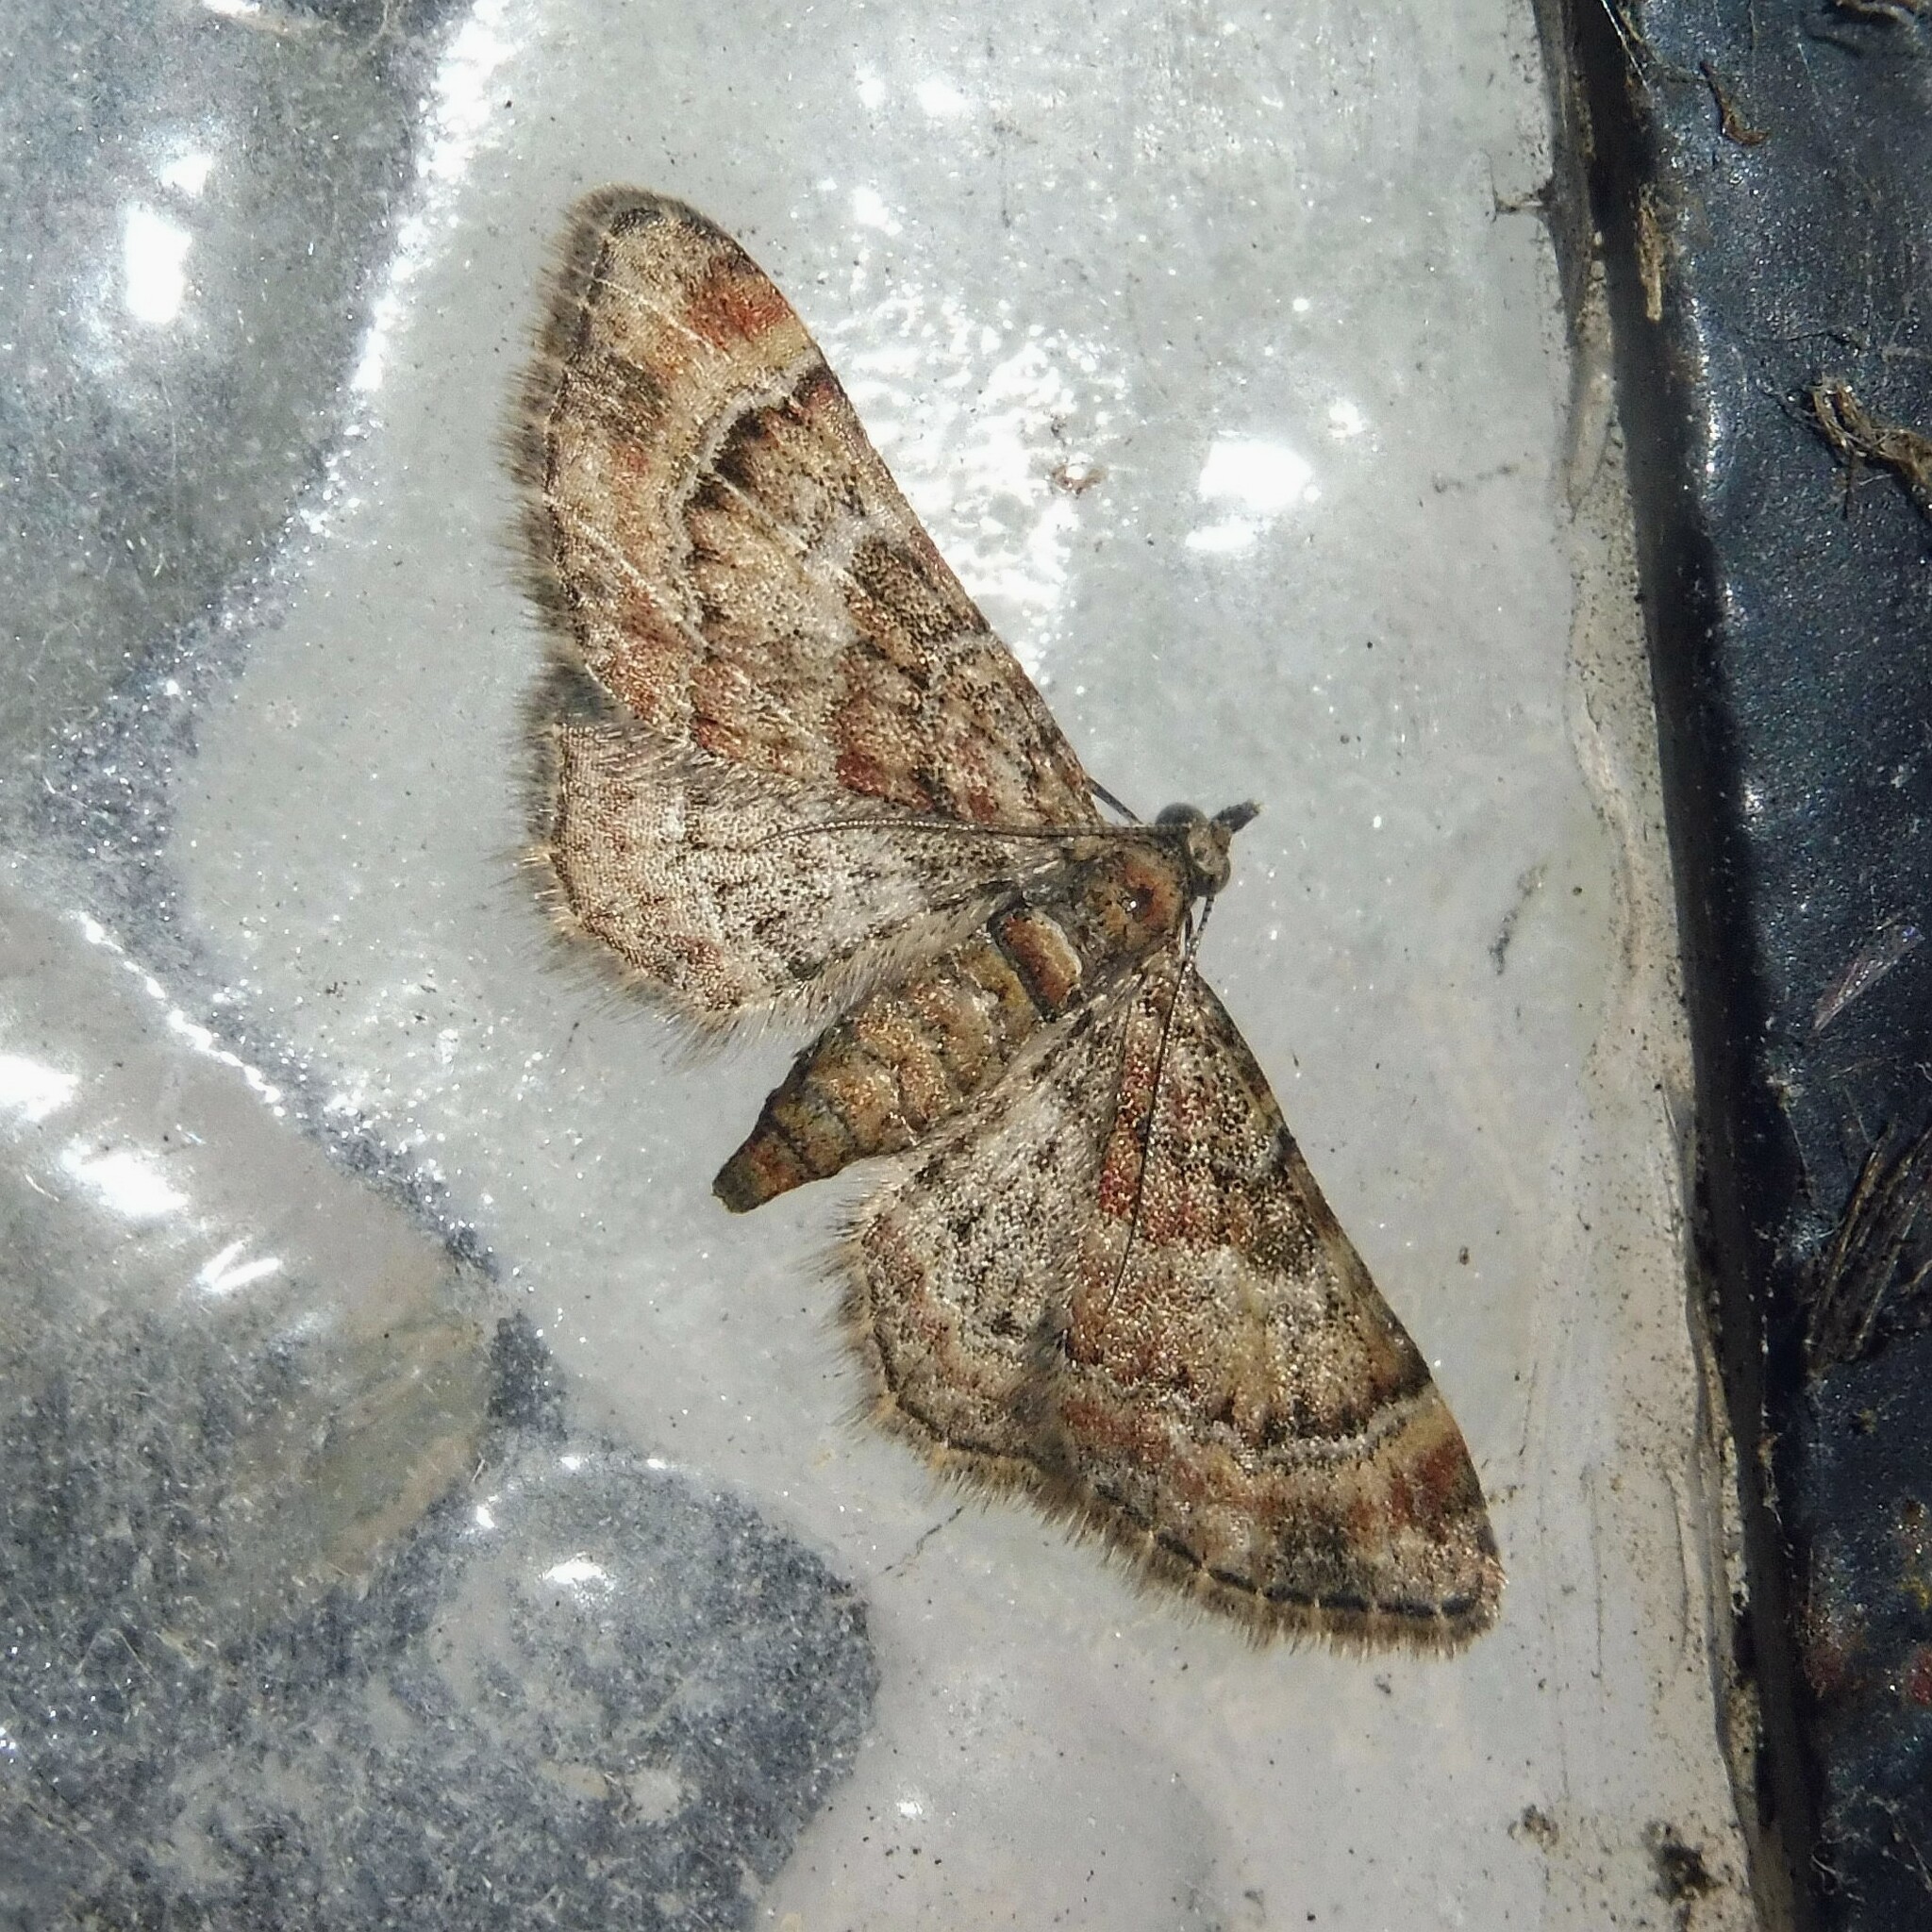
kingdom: Animalia
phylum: Arthropoda
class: Insecta
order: Lepidoptera
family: Geometridae
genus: Gymnoscelis
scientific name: Gymnoscelis rufifasciata
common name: Double-striped pug
